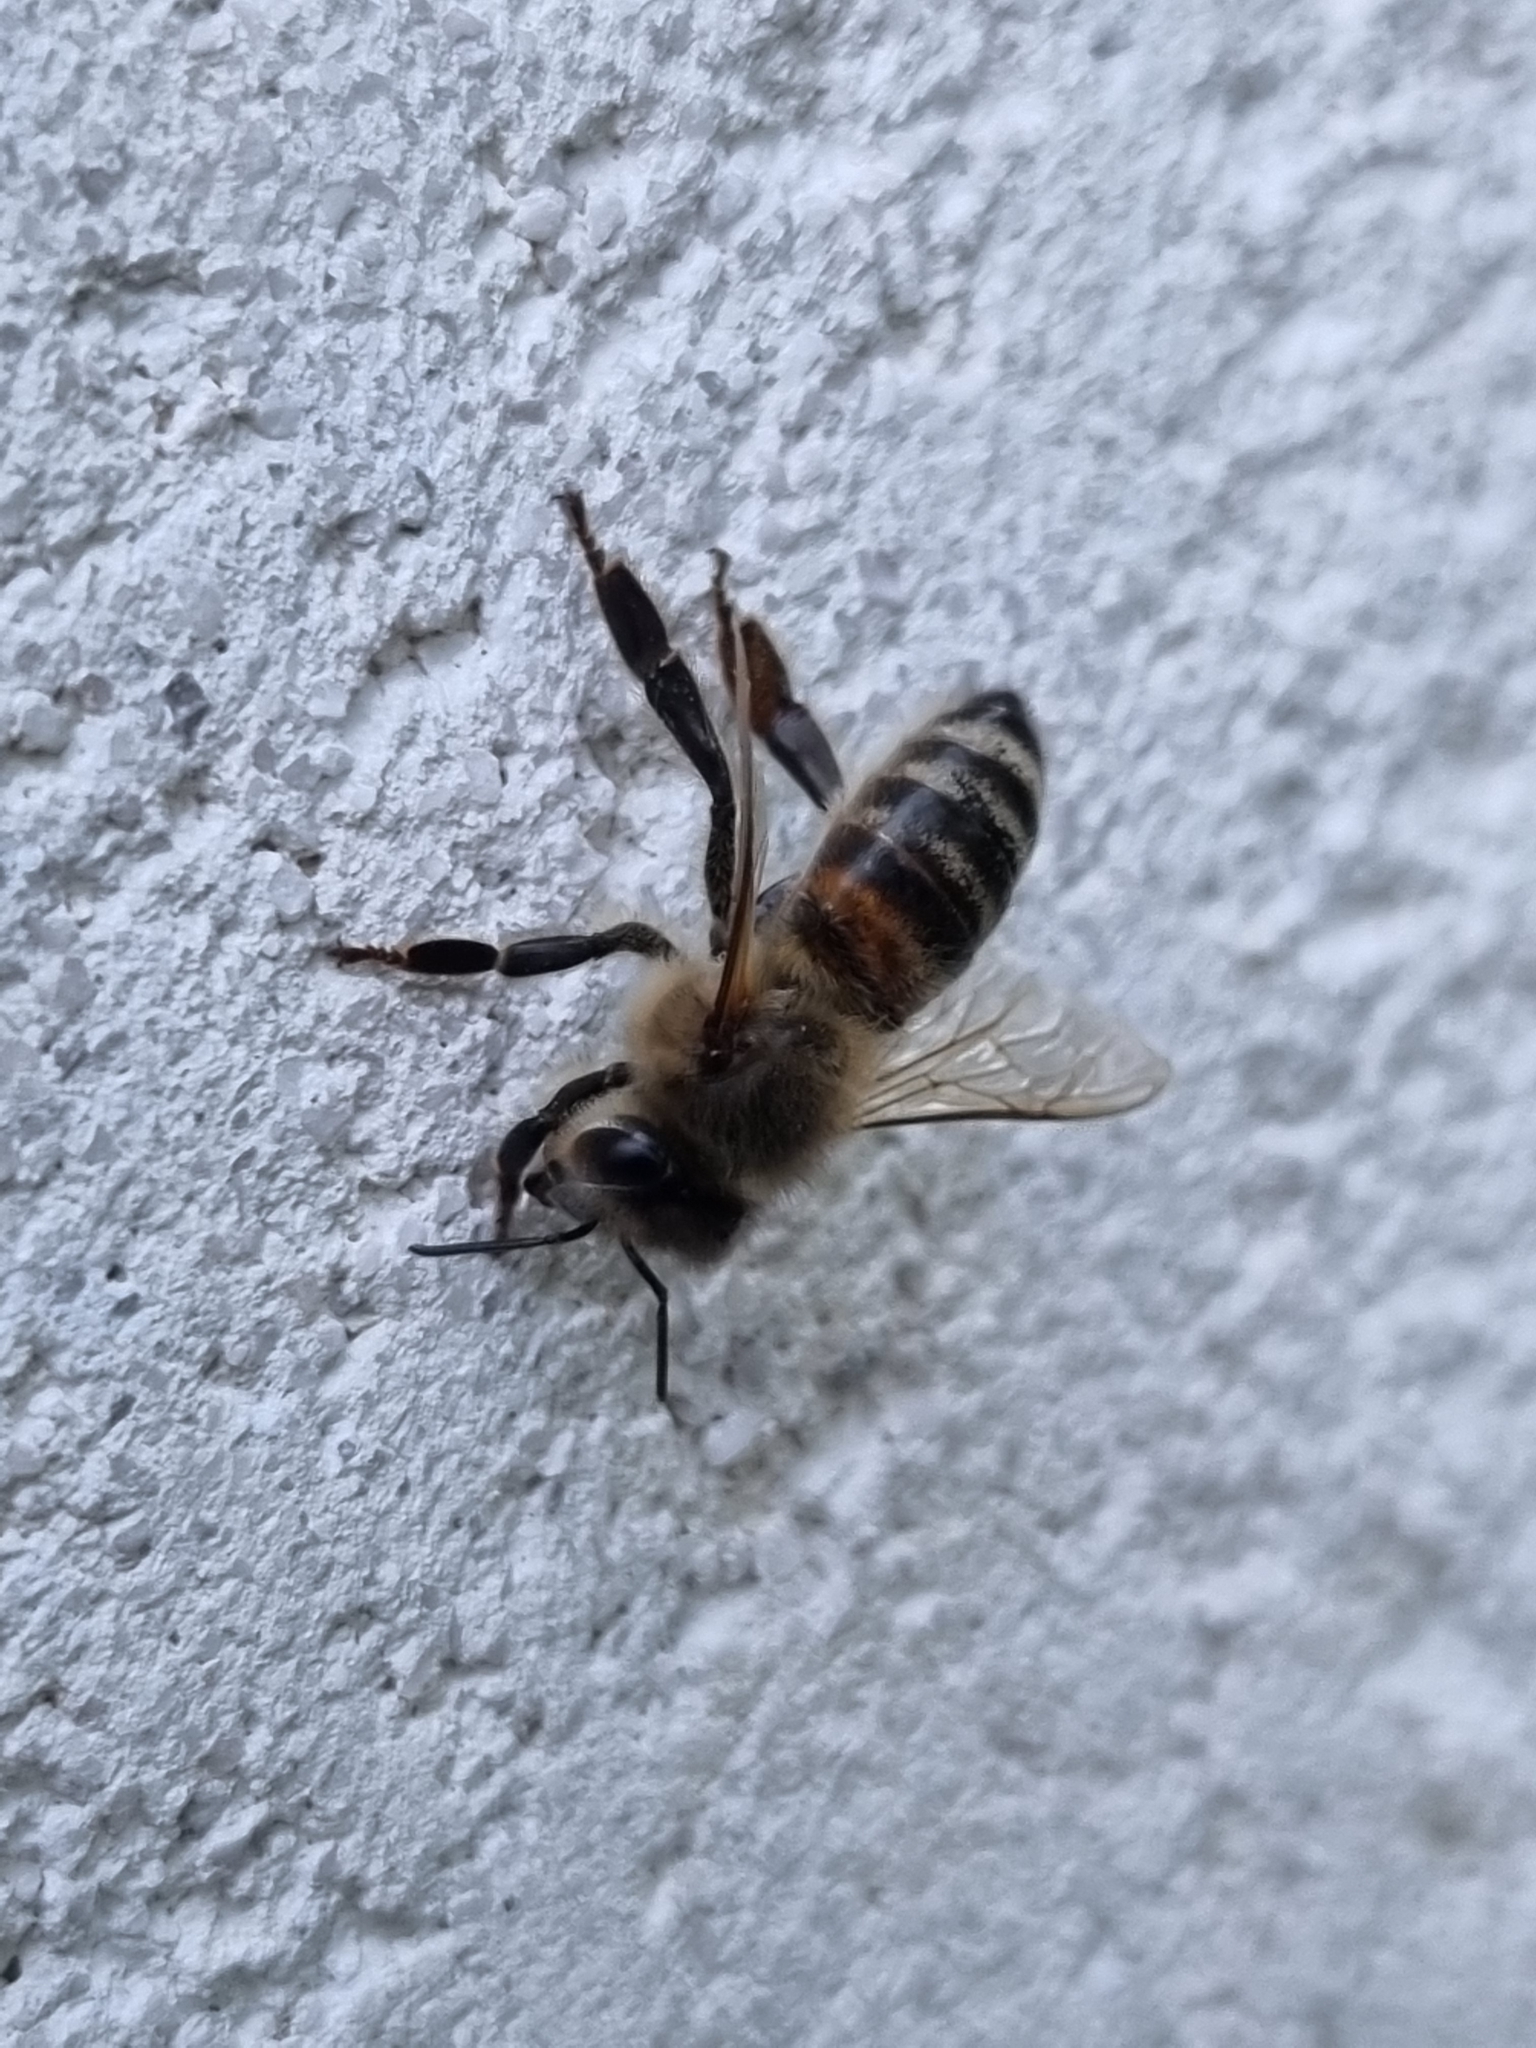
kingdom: Animalia
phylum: Arthropoda
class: Insecta
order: Hymenoptera
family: Apidae
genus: Apis
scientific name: Apis mellifera
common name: Honey bee
